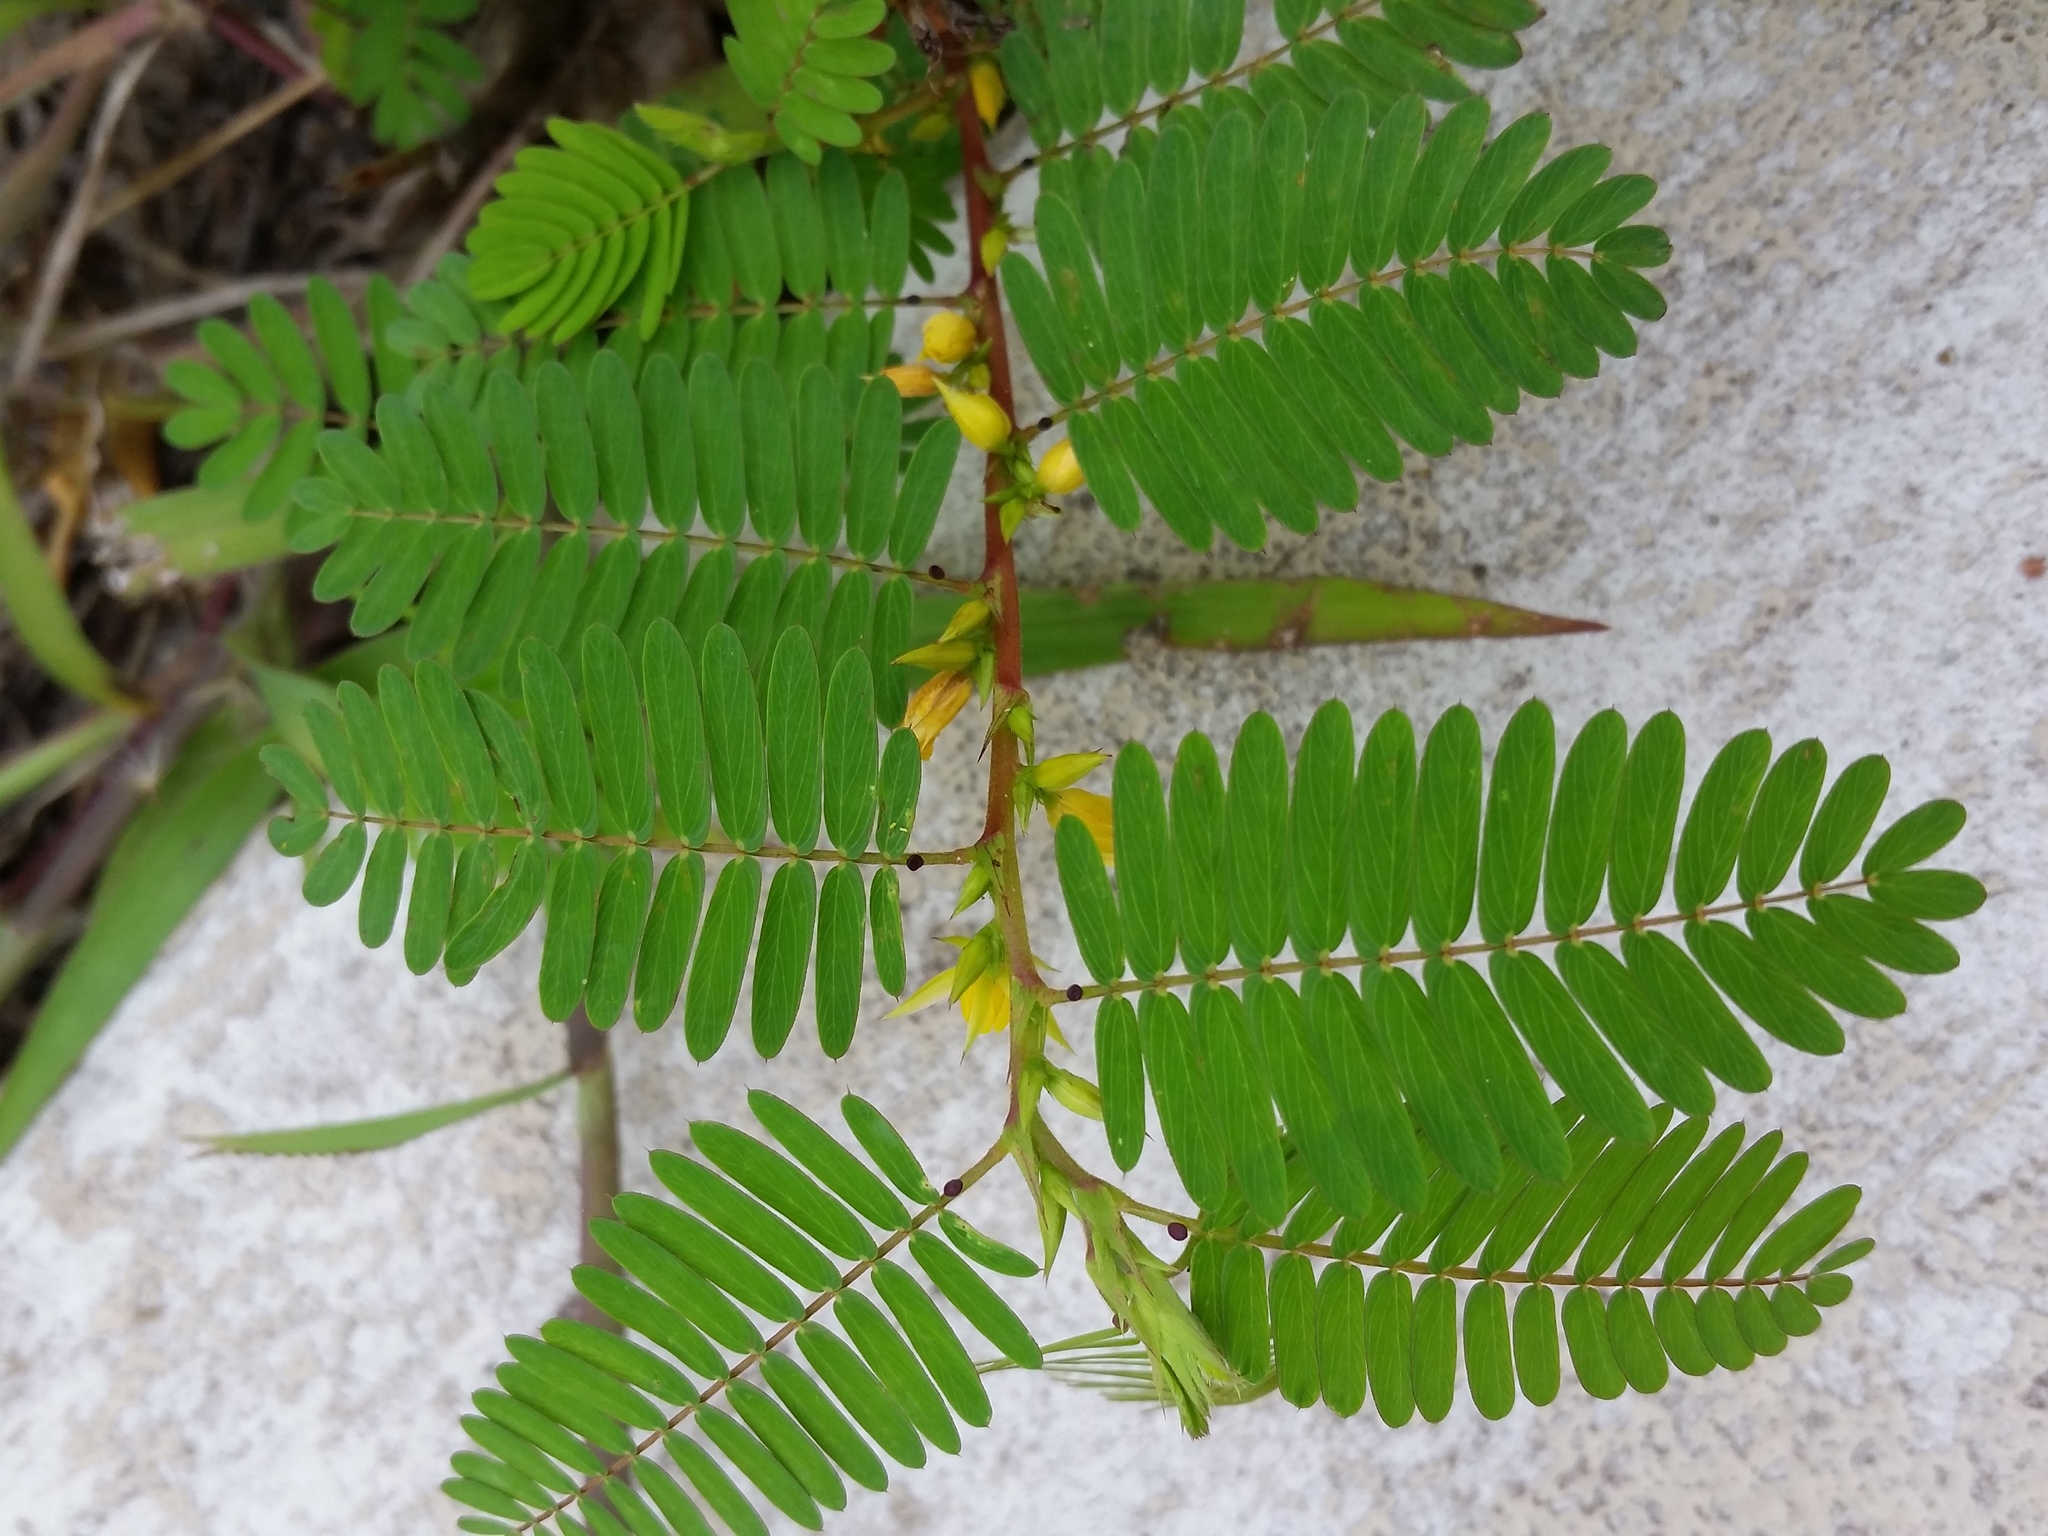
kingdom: Plantae
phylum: Tracheophyta
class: Magnoliopsida
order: Fabales
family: Fabaceae
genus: Chamaecrista
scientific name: Chamaecrista nictitans
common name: Sensitive cassia
